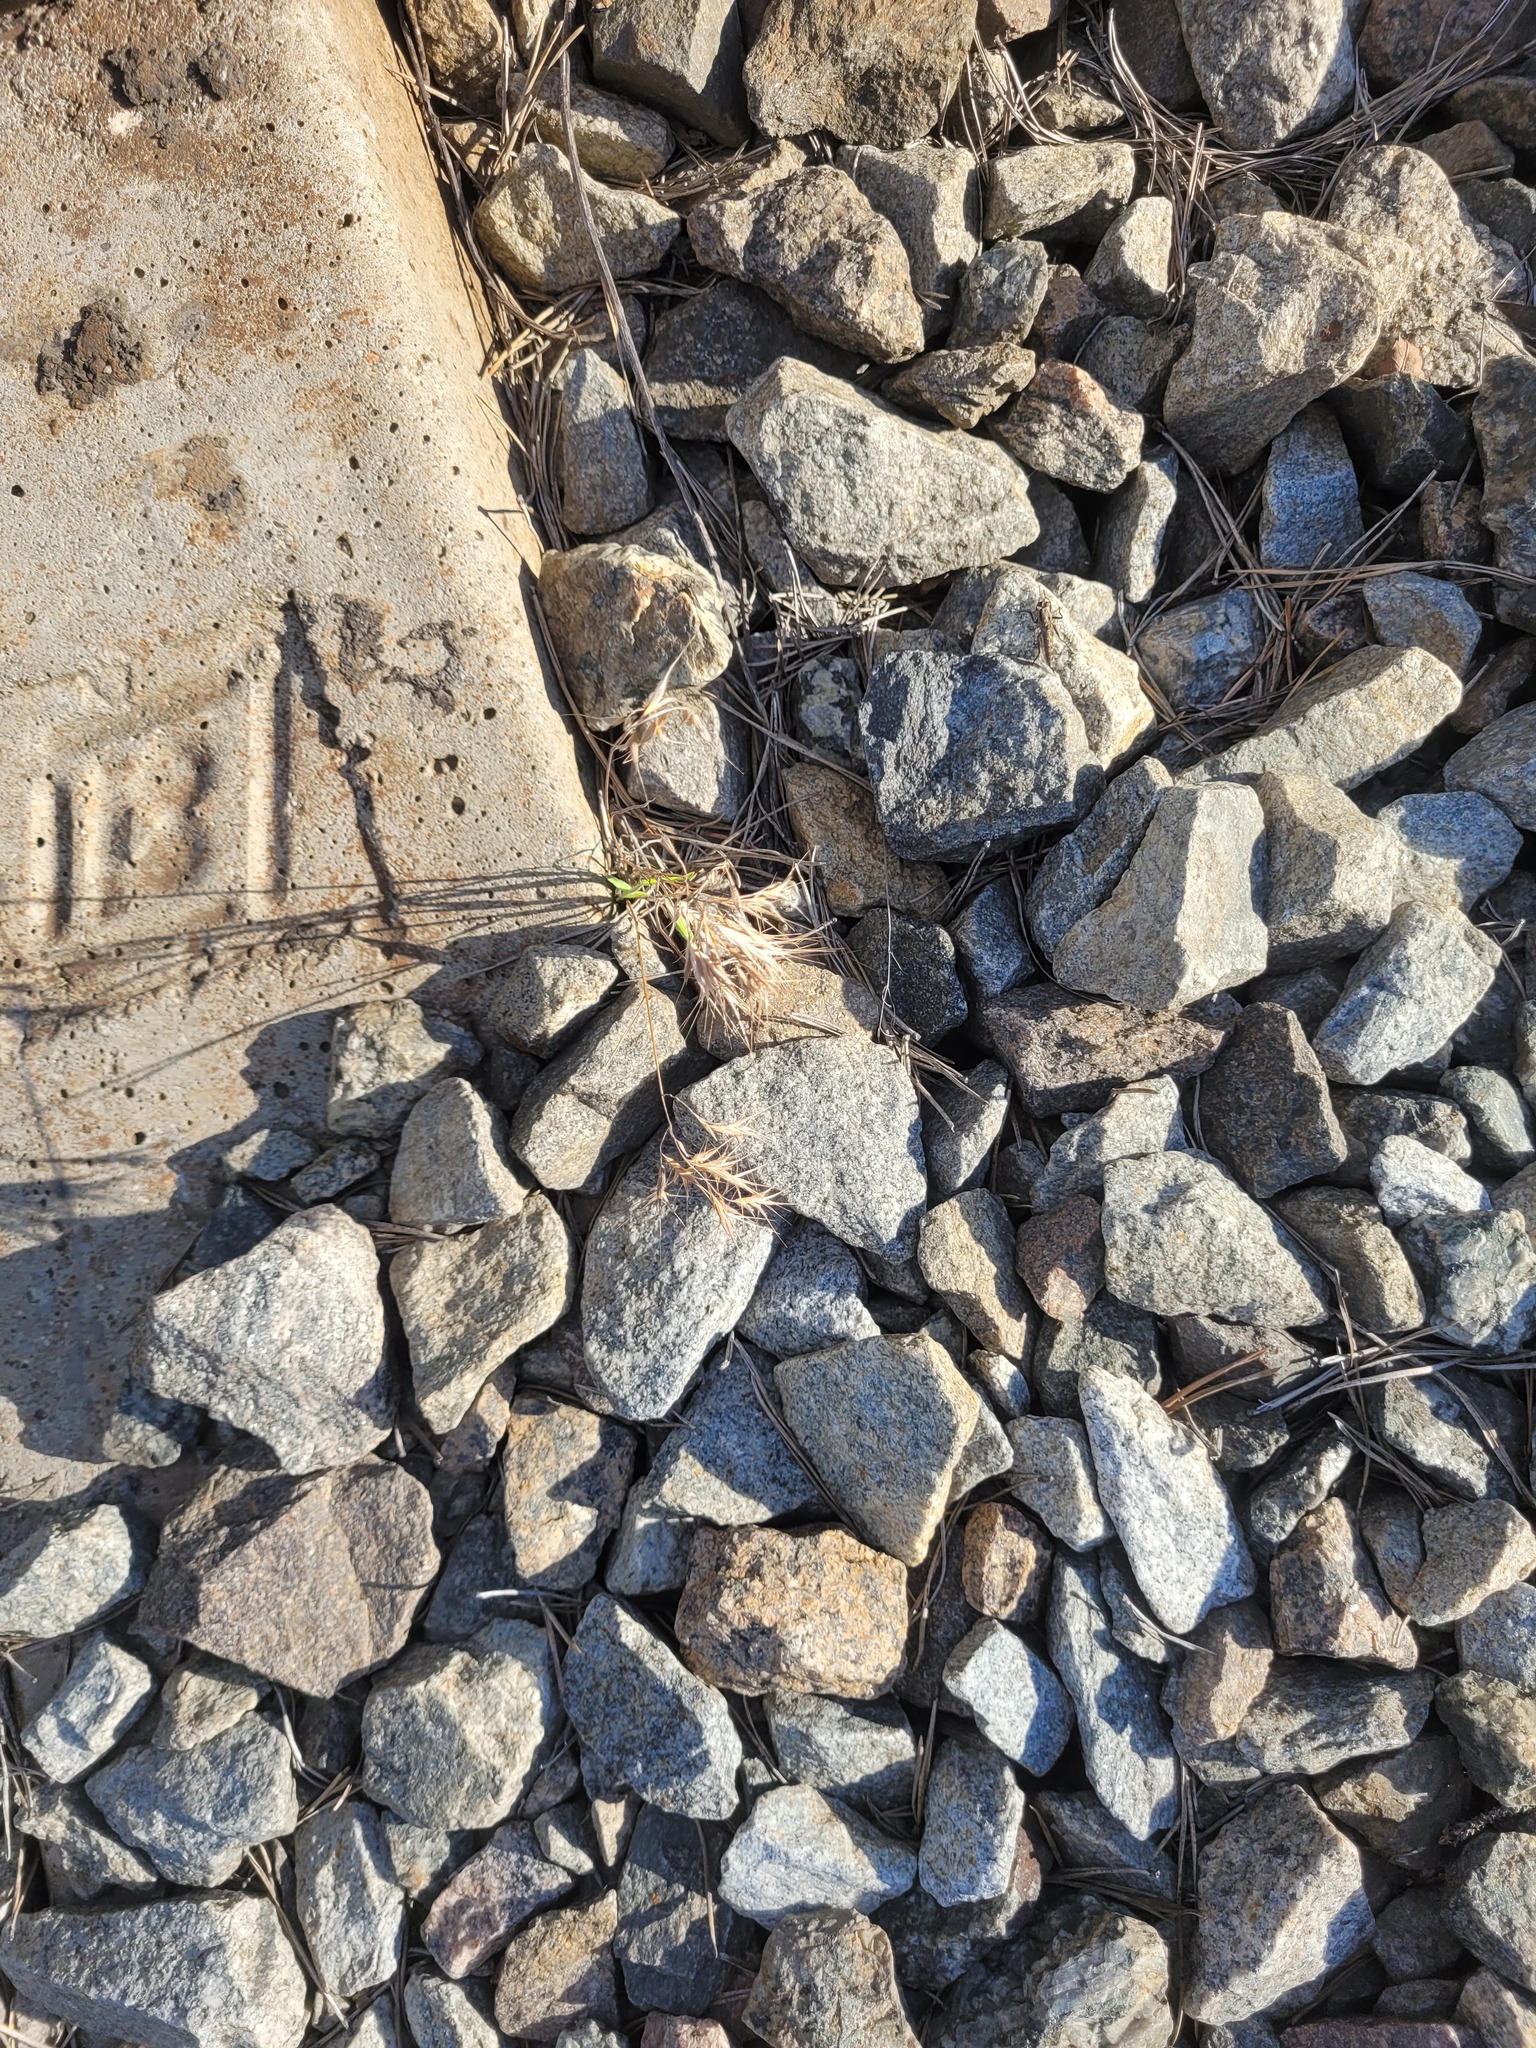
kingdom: Plantae
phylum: Tracheophyta
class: Liliopsida
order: Poales
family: Poaceae
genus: Bromus
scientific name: Bromus tectorum
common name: Cheatgrass
